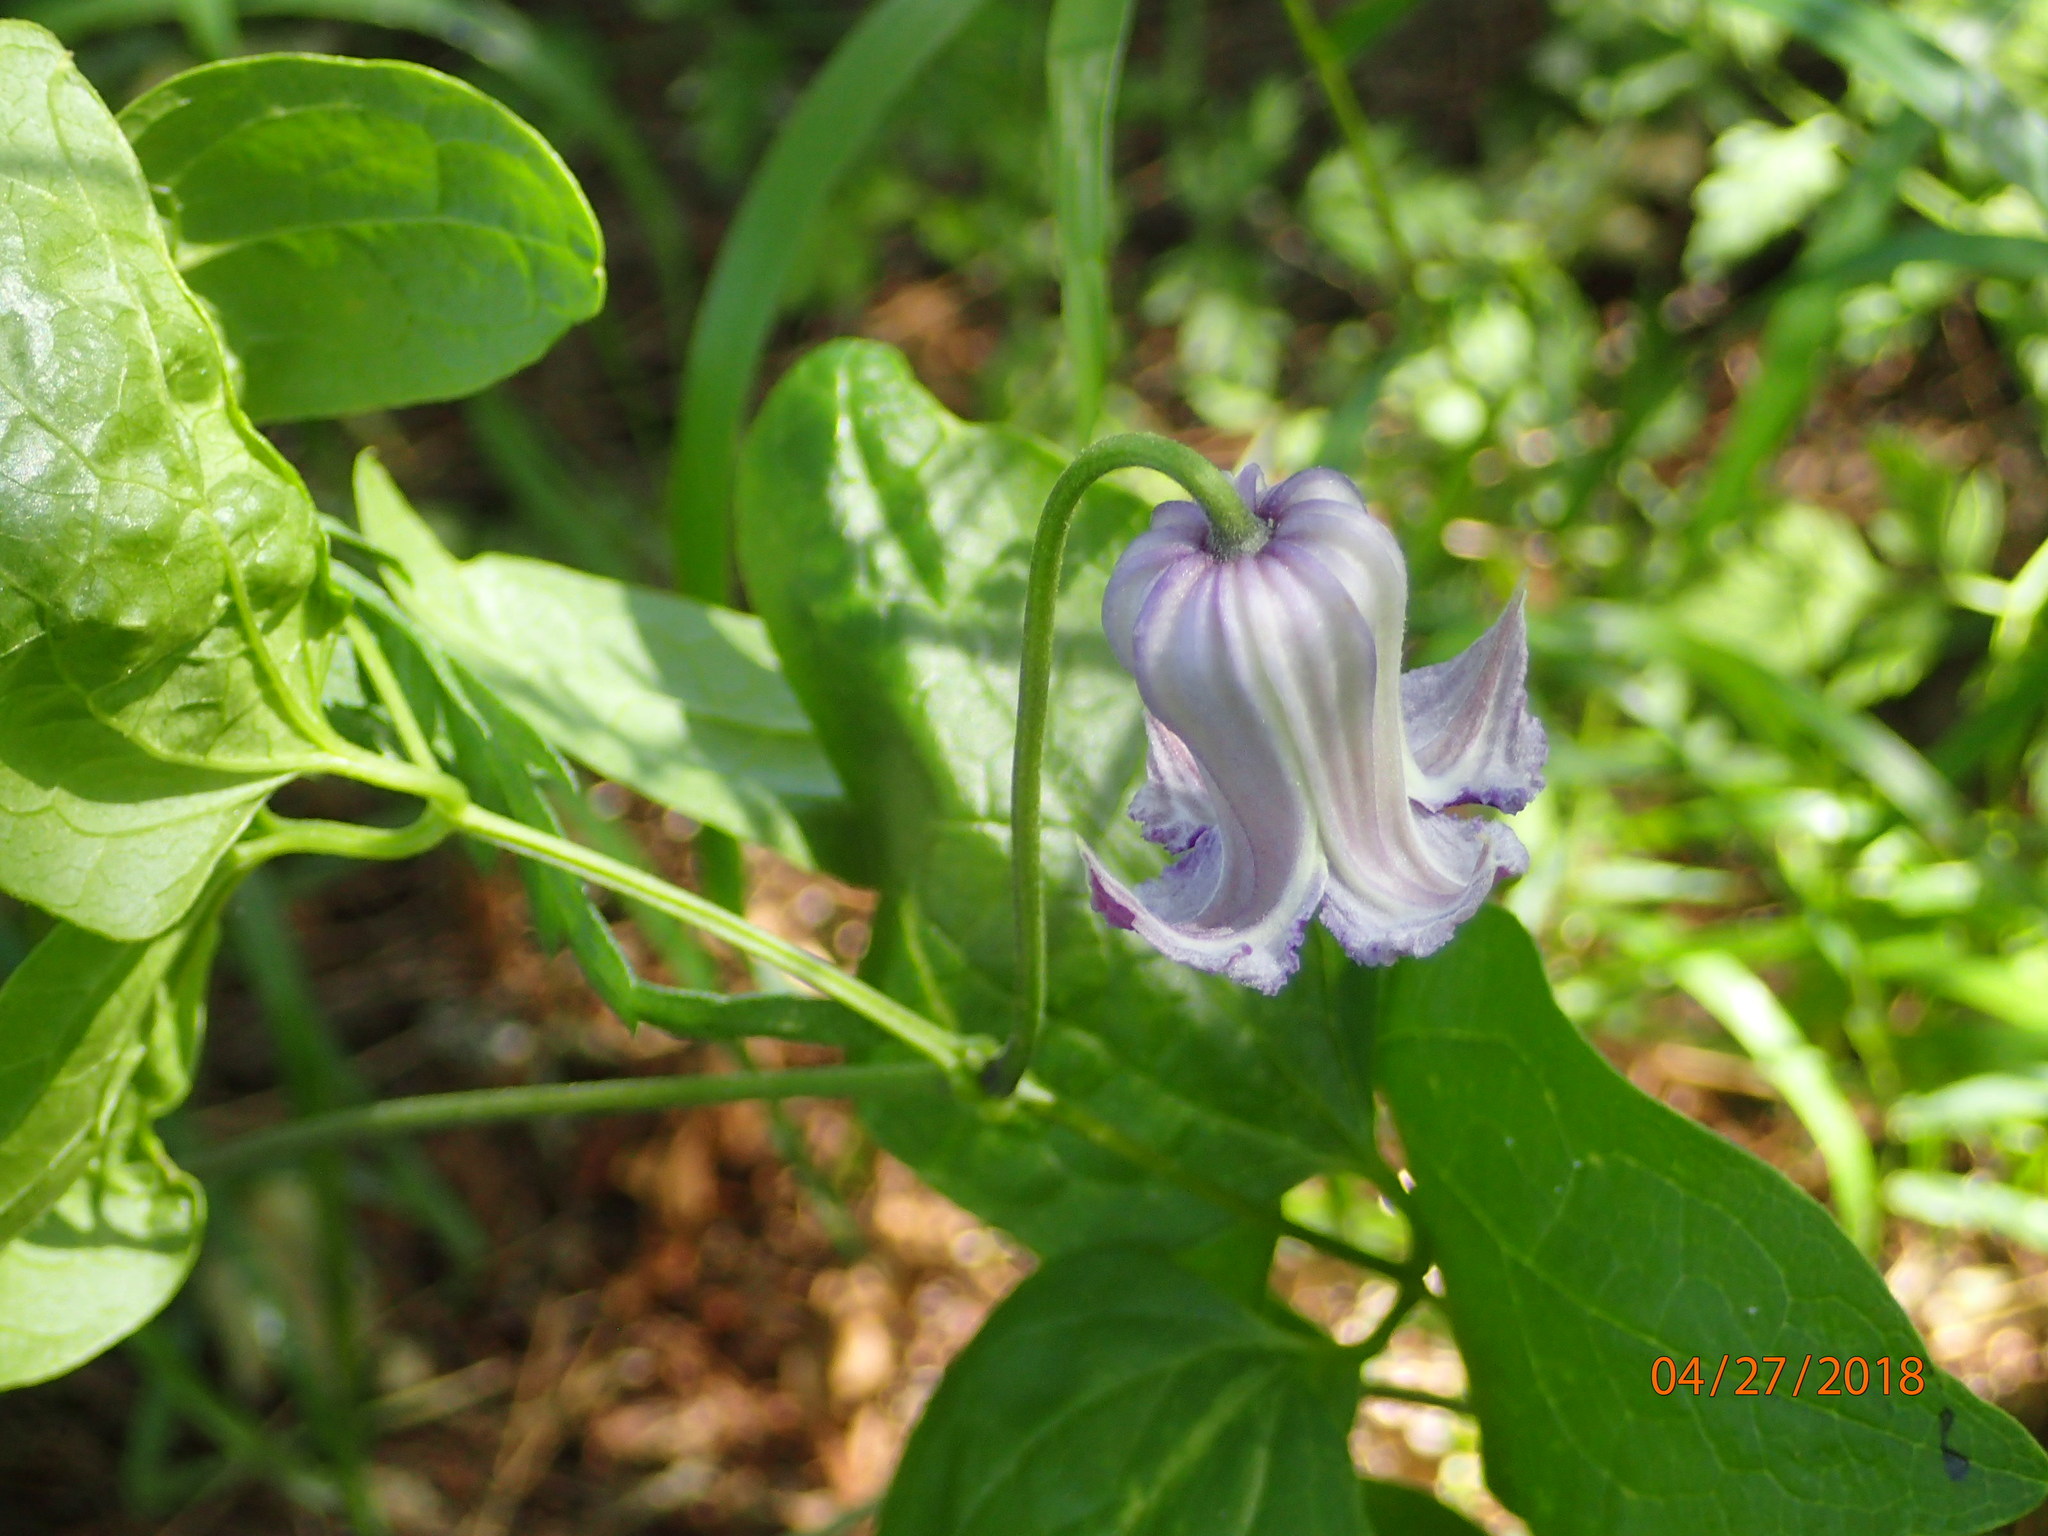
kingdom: Plantae
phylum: Tracheophyta
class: Magnoliopsida
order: Ranunculales
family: Ranunculaceae
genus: Clematis
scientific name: Clematis crispa
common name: Curly clematis
